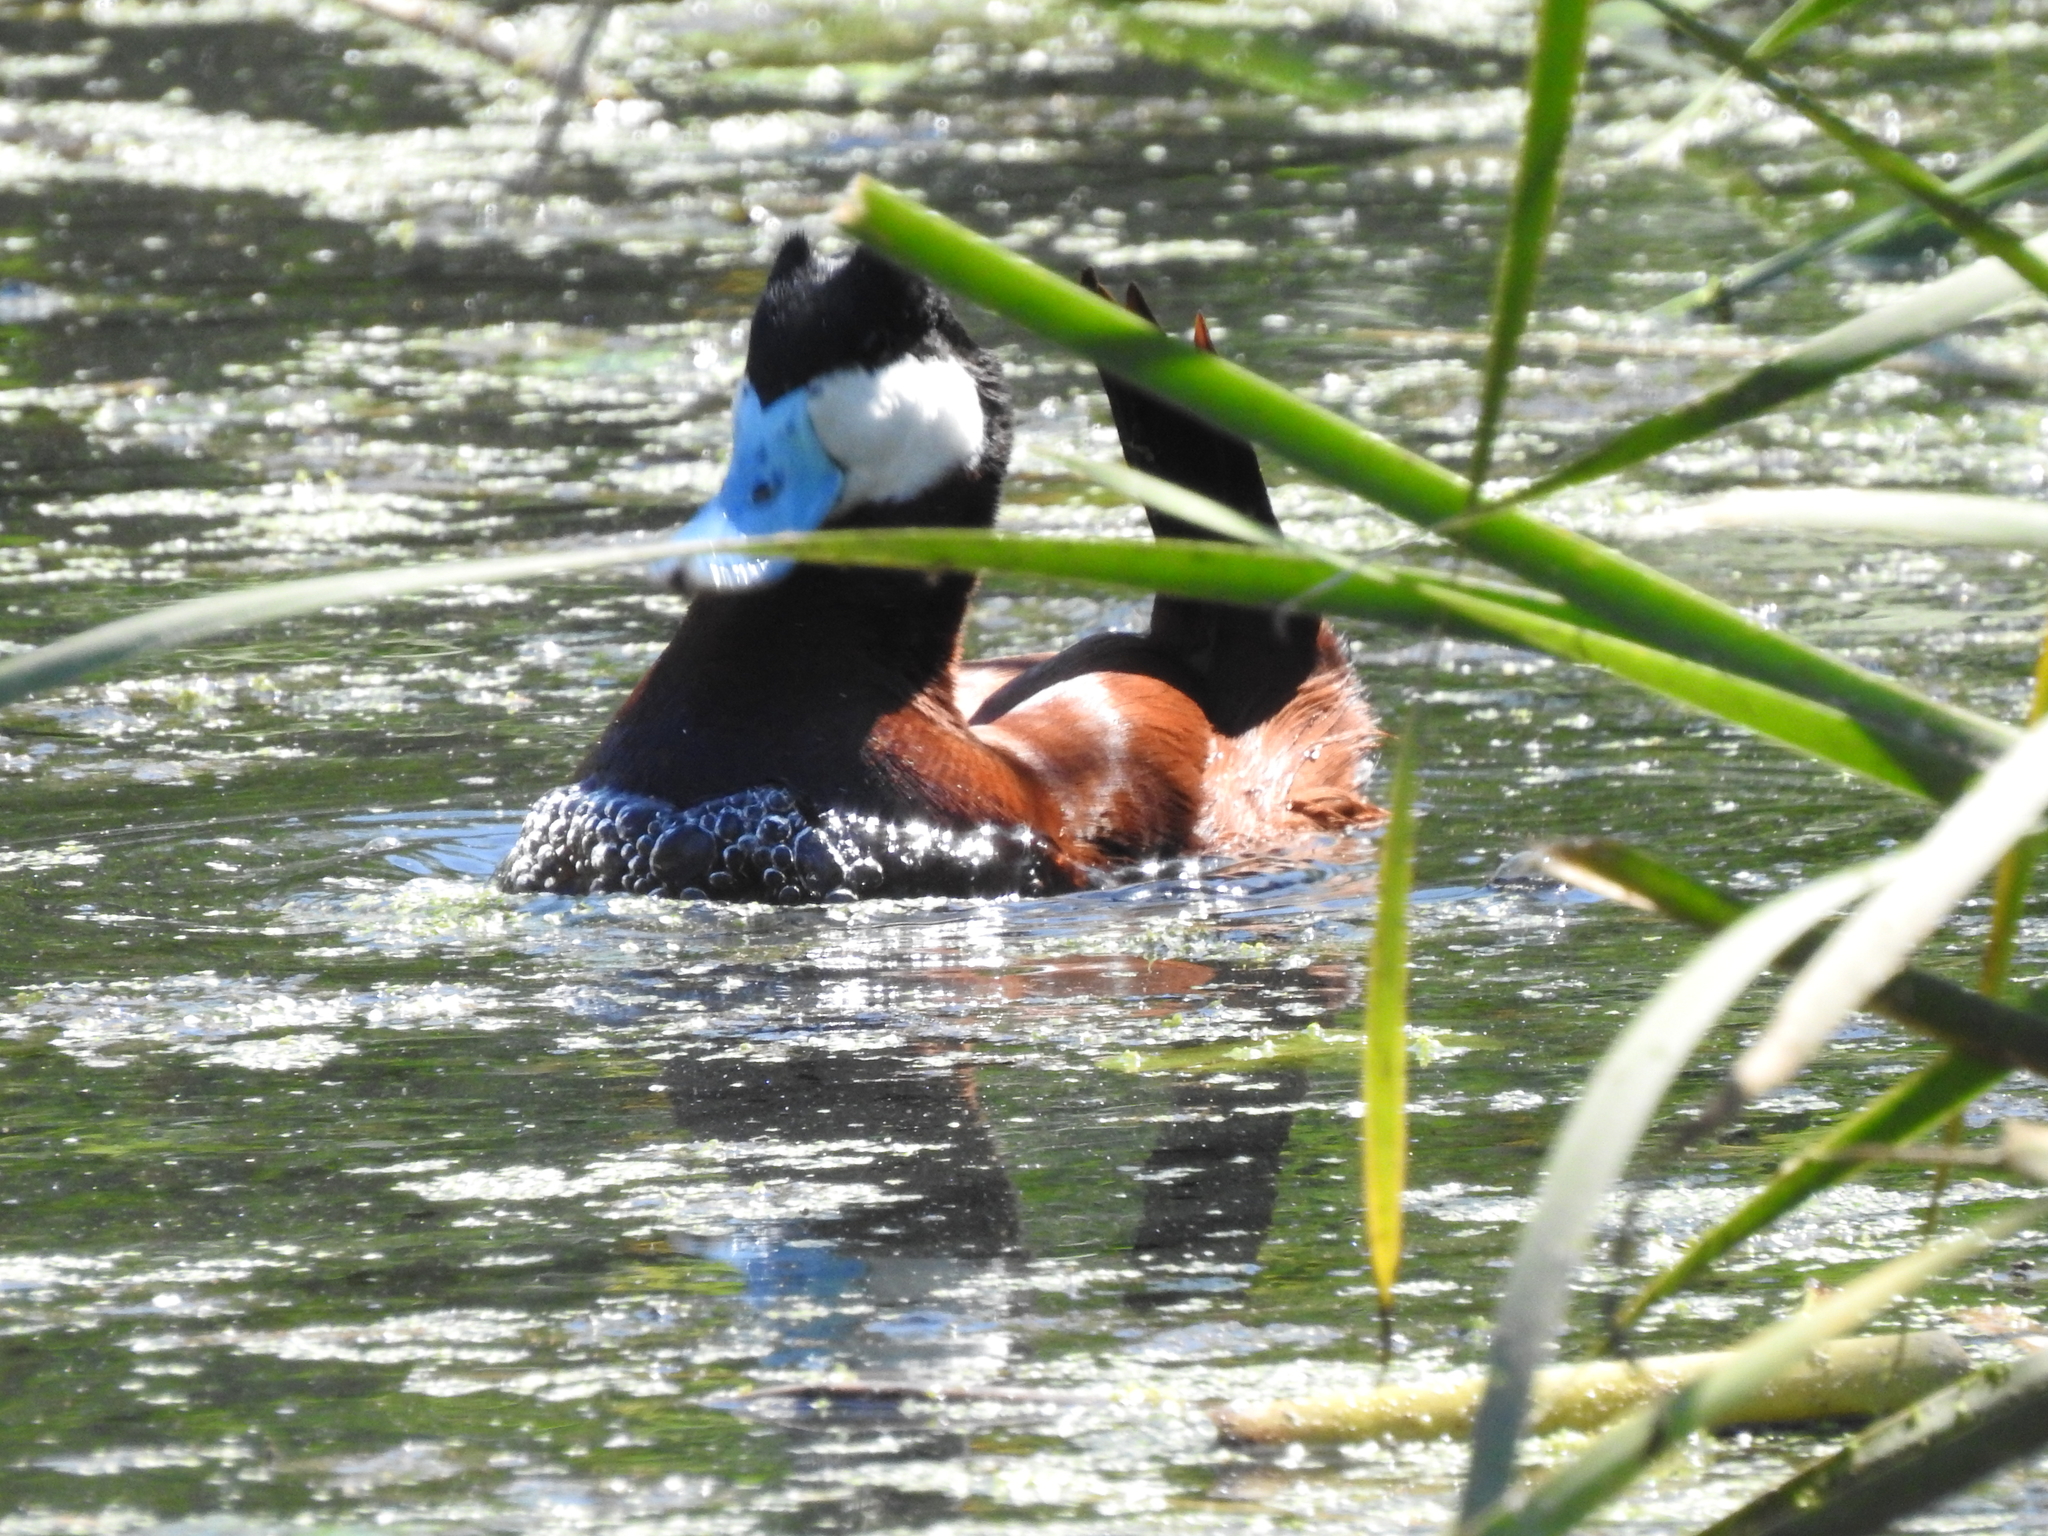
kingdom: Animalia
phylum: Chordata
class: Aves
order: Anseriformes
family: Anatidae
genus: Oxyura
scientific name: Oxyura jamaicensis
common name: Ruddy duck
